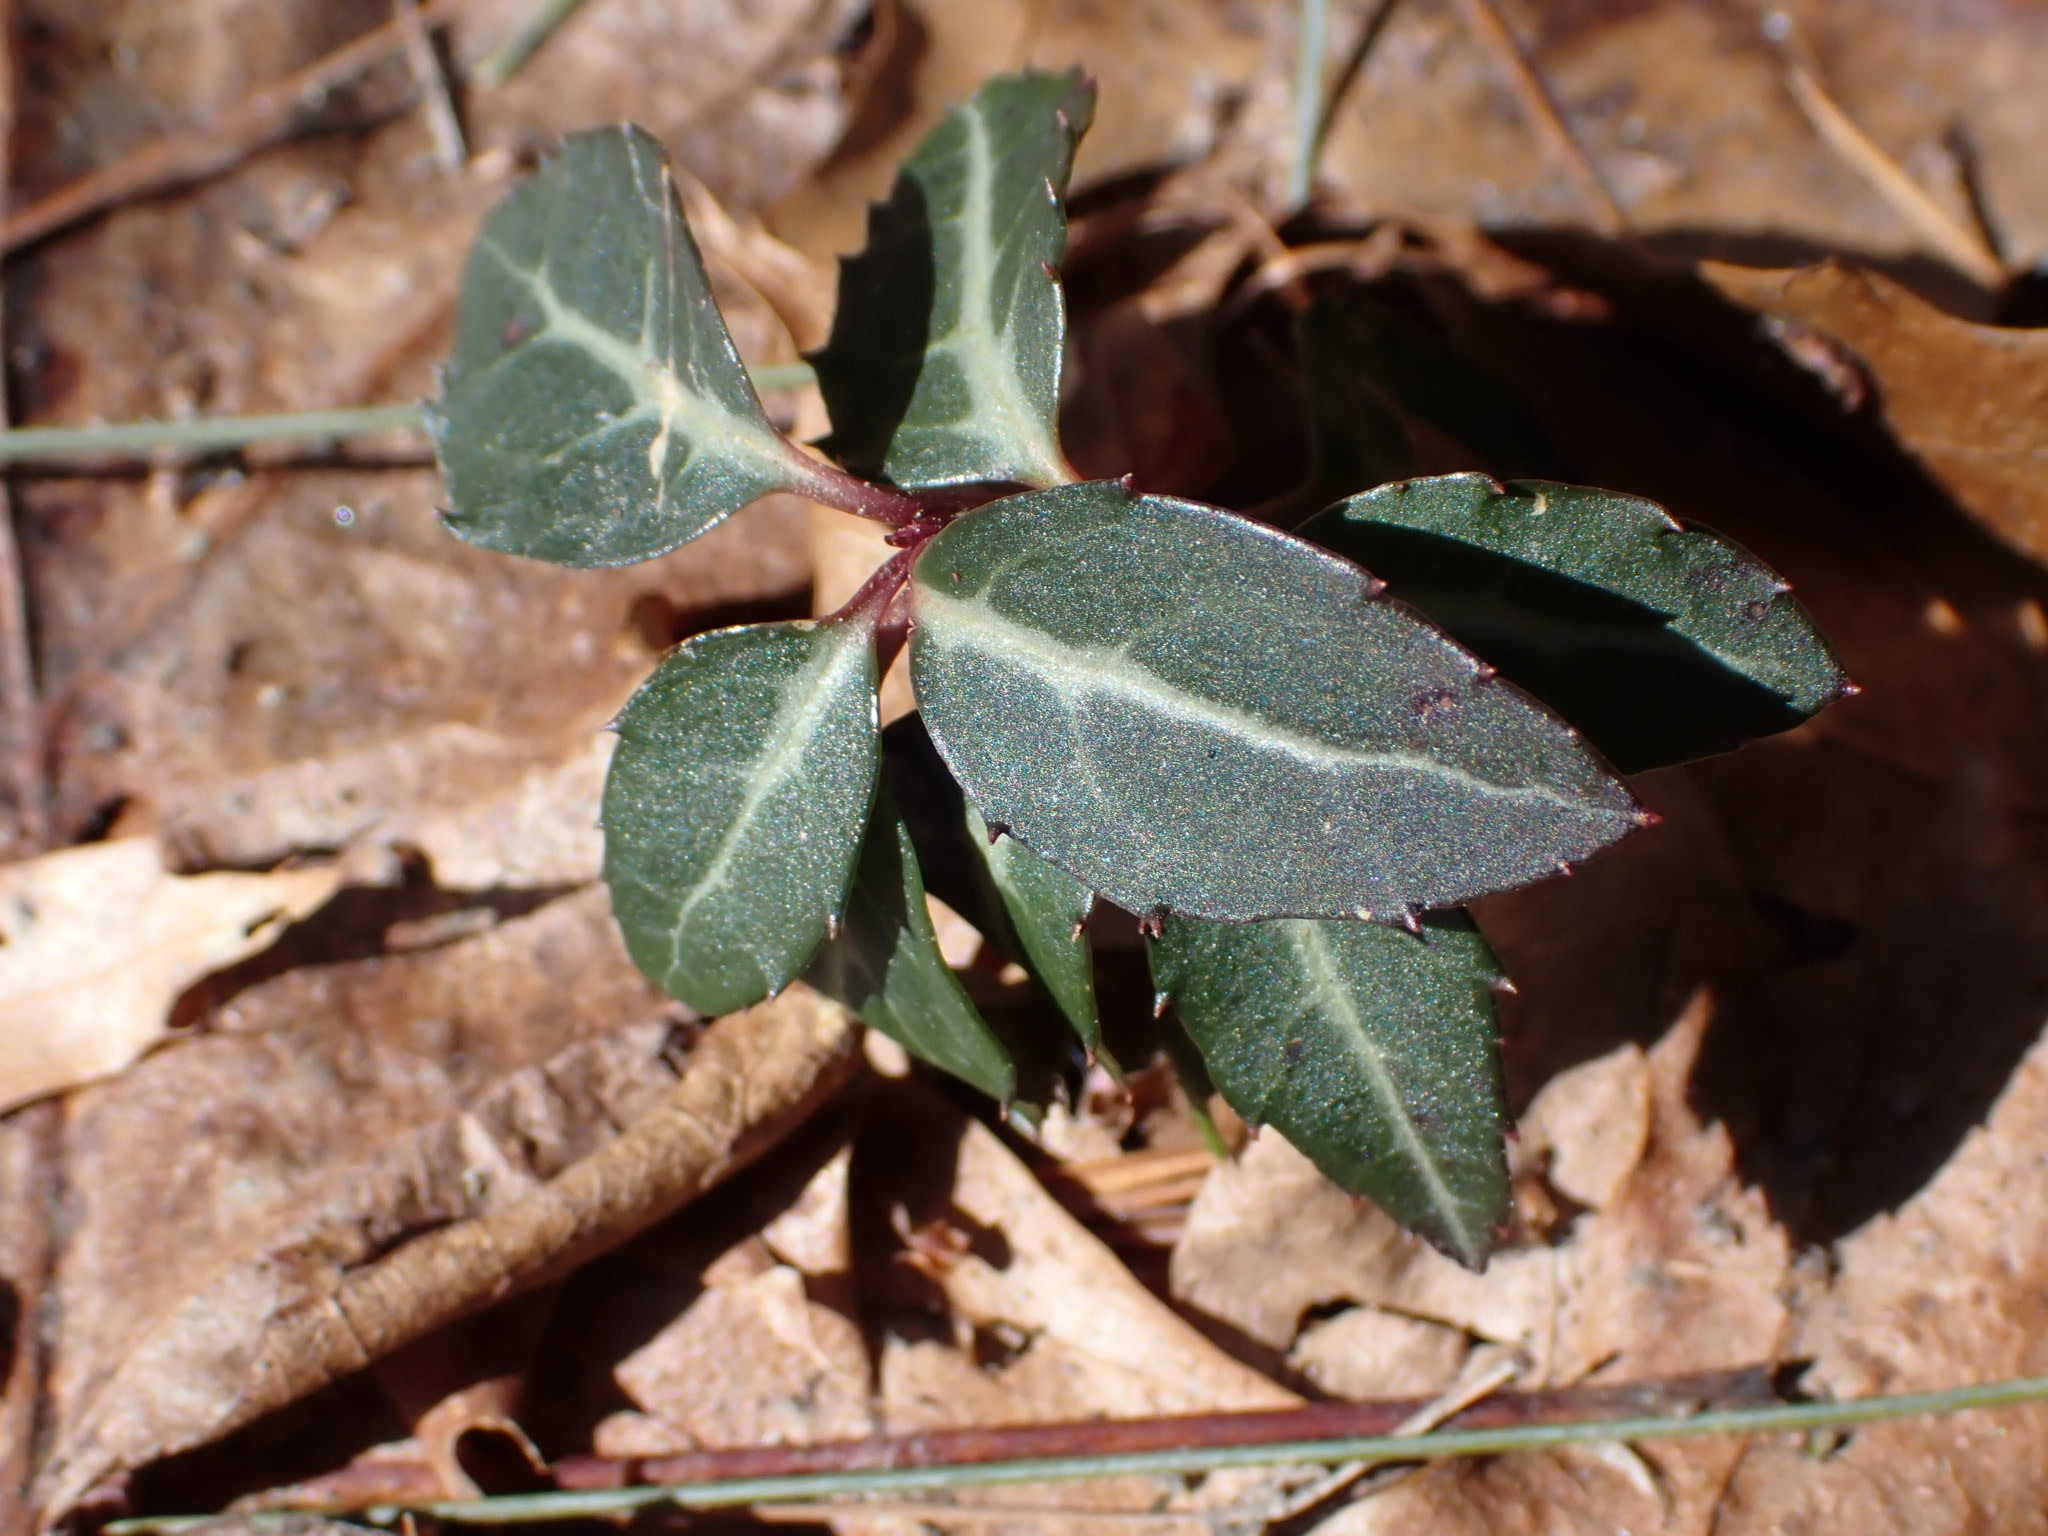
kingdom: Plantae
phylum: Tracheophyta
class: Magnoliopsida
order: Ericales
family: Ericaceae
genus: Chimaphila
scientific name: Chimaphila maculata
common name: Spotted pipsissewa
